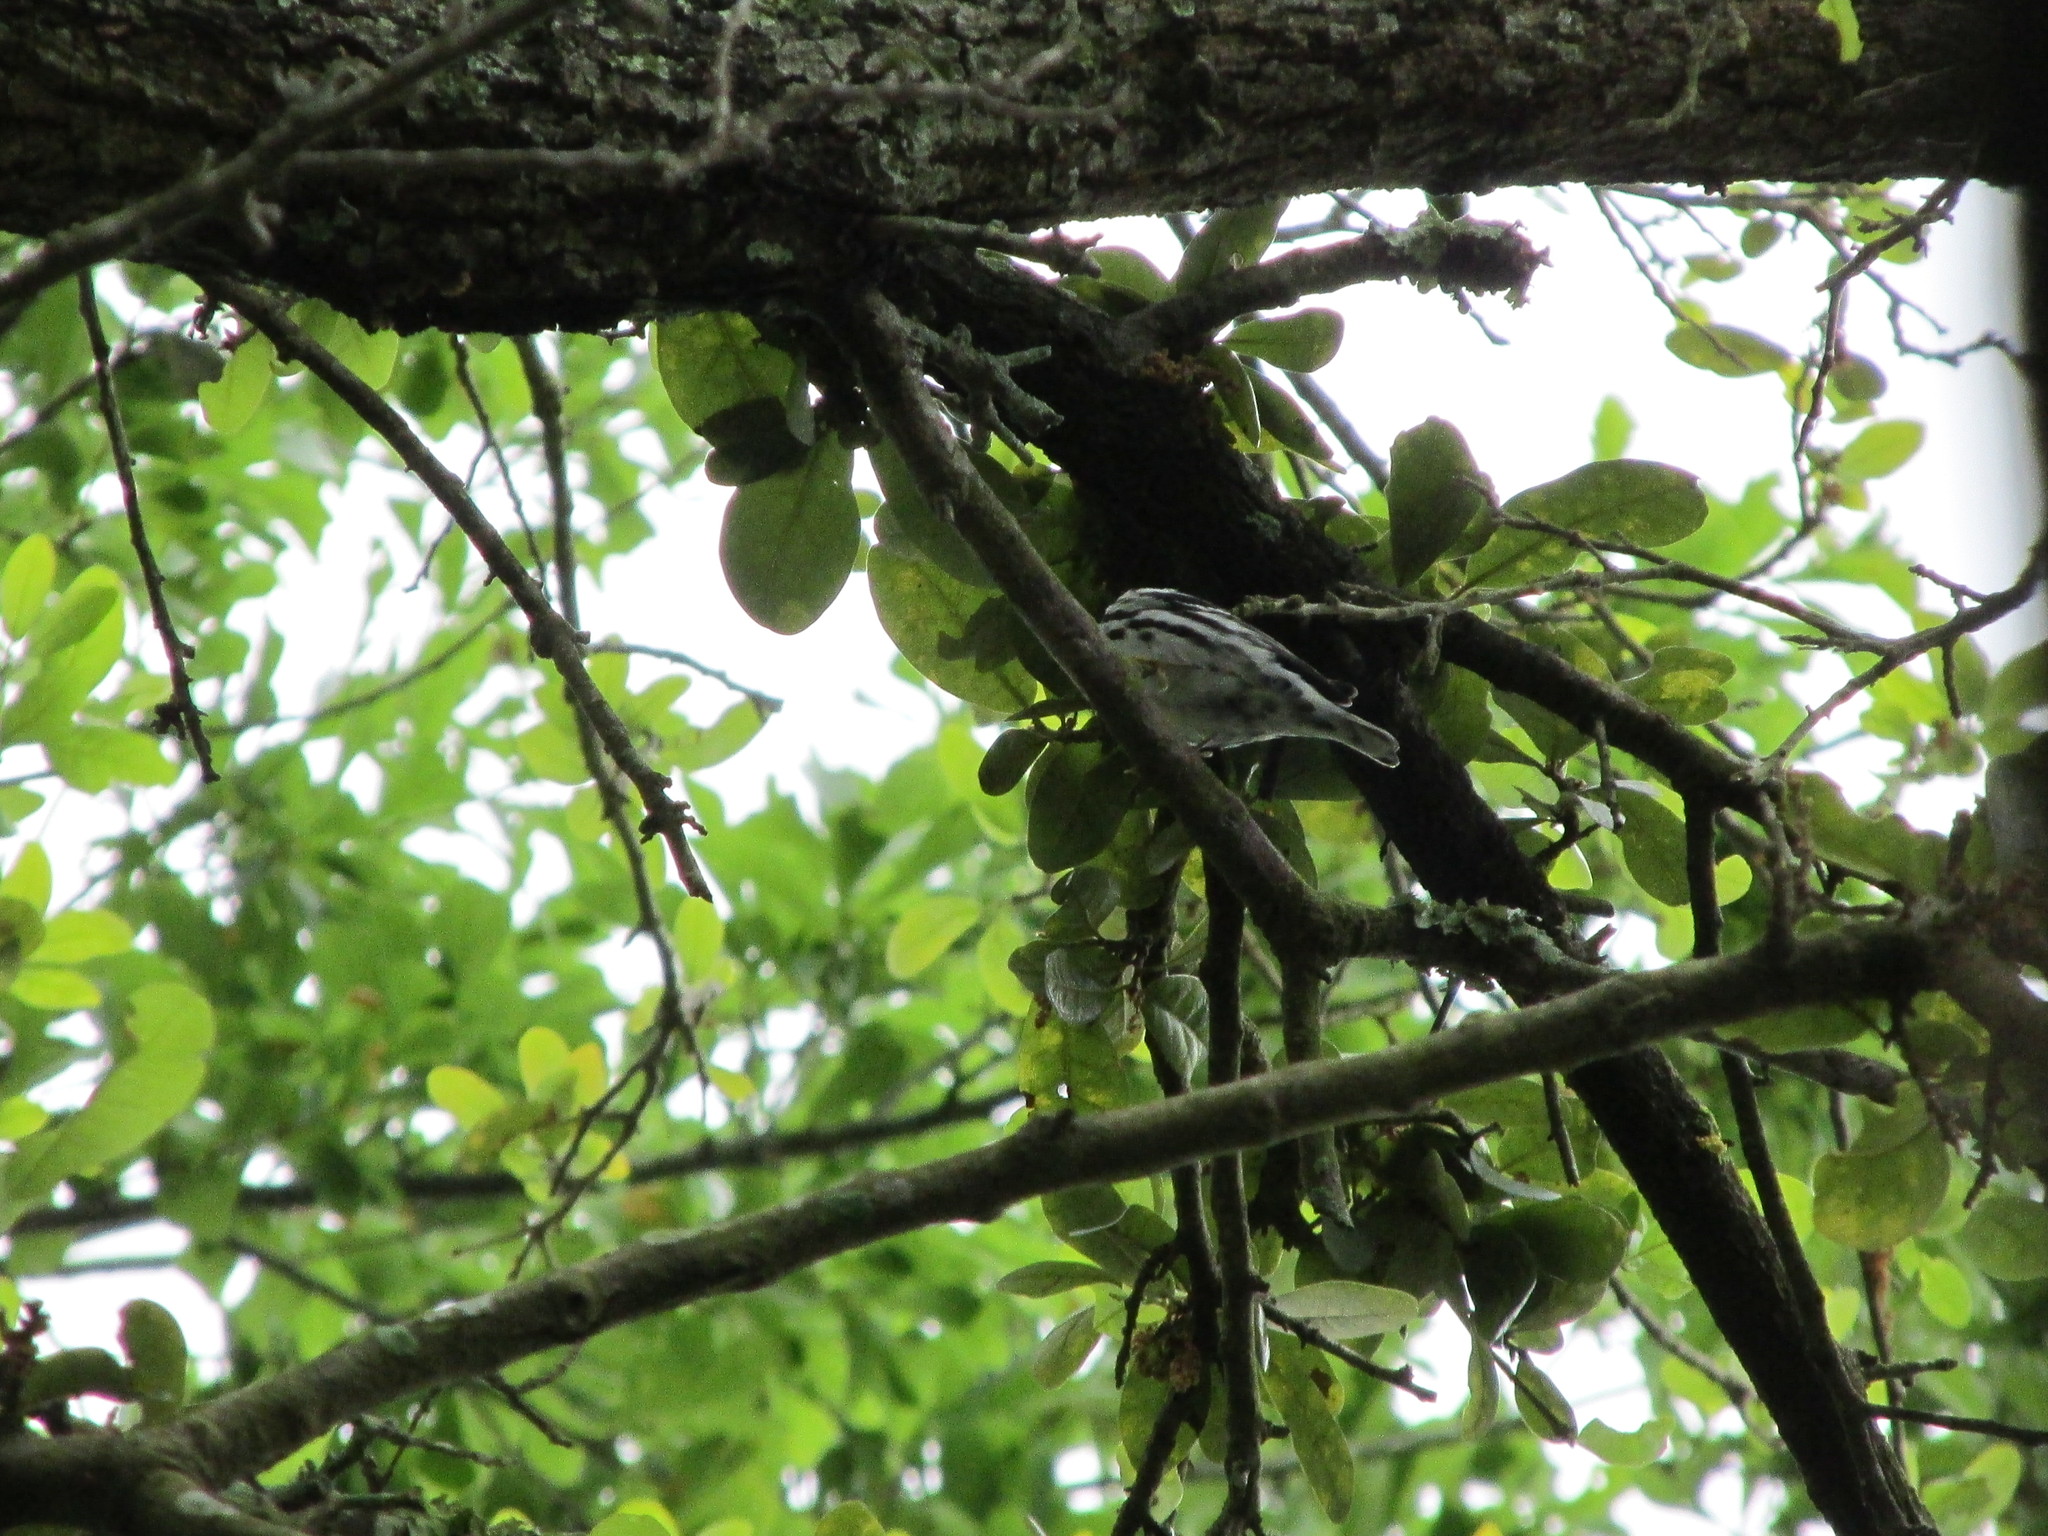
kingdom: Animalia
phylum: Chordata
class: Aves
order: Passeriformes
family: Parulidae
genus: Mniotilta
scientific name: Mniotilta varia
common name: Black-and-white warbler
